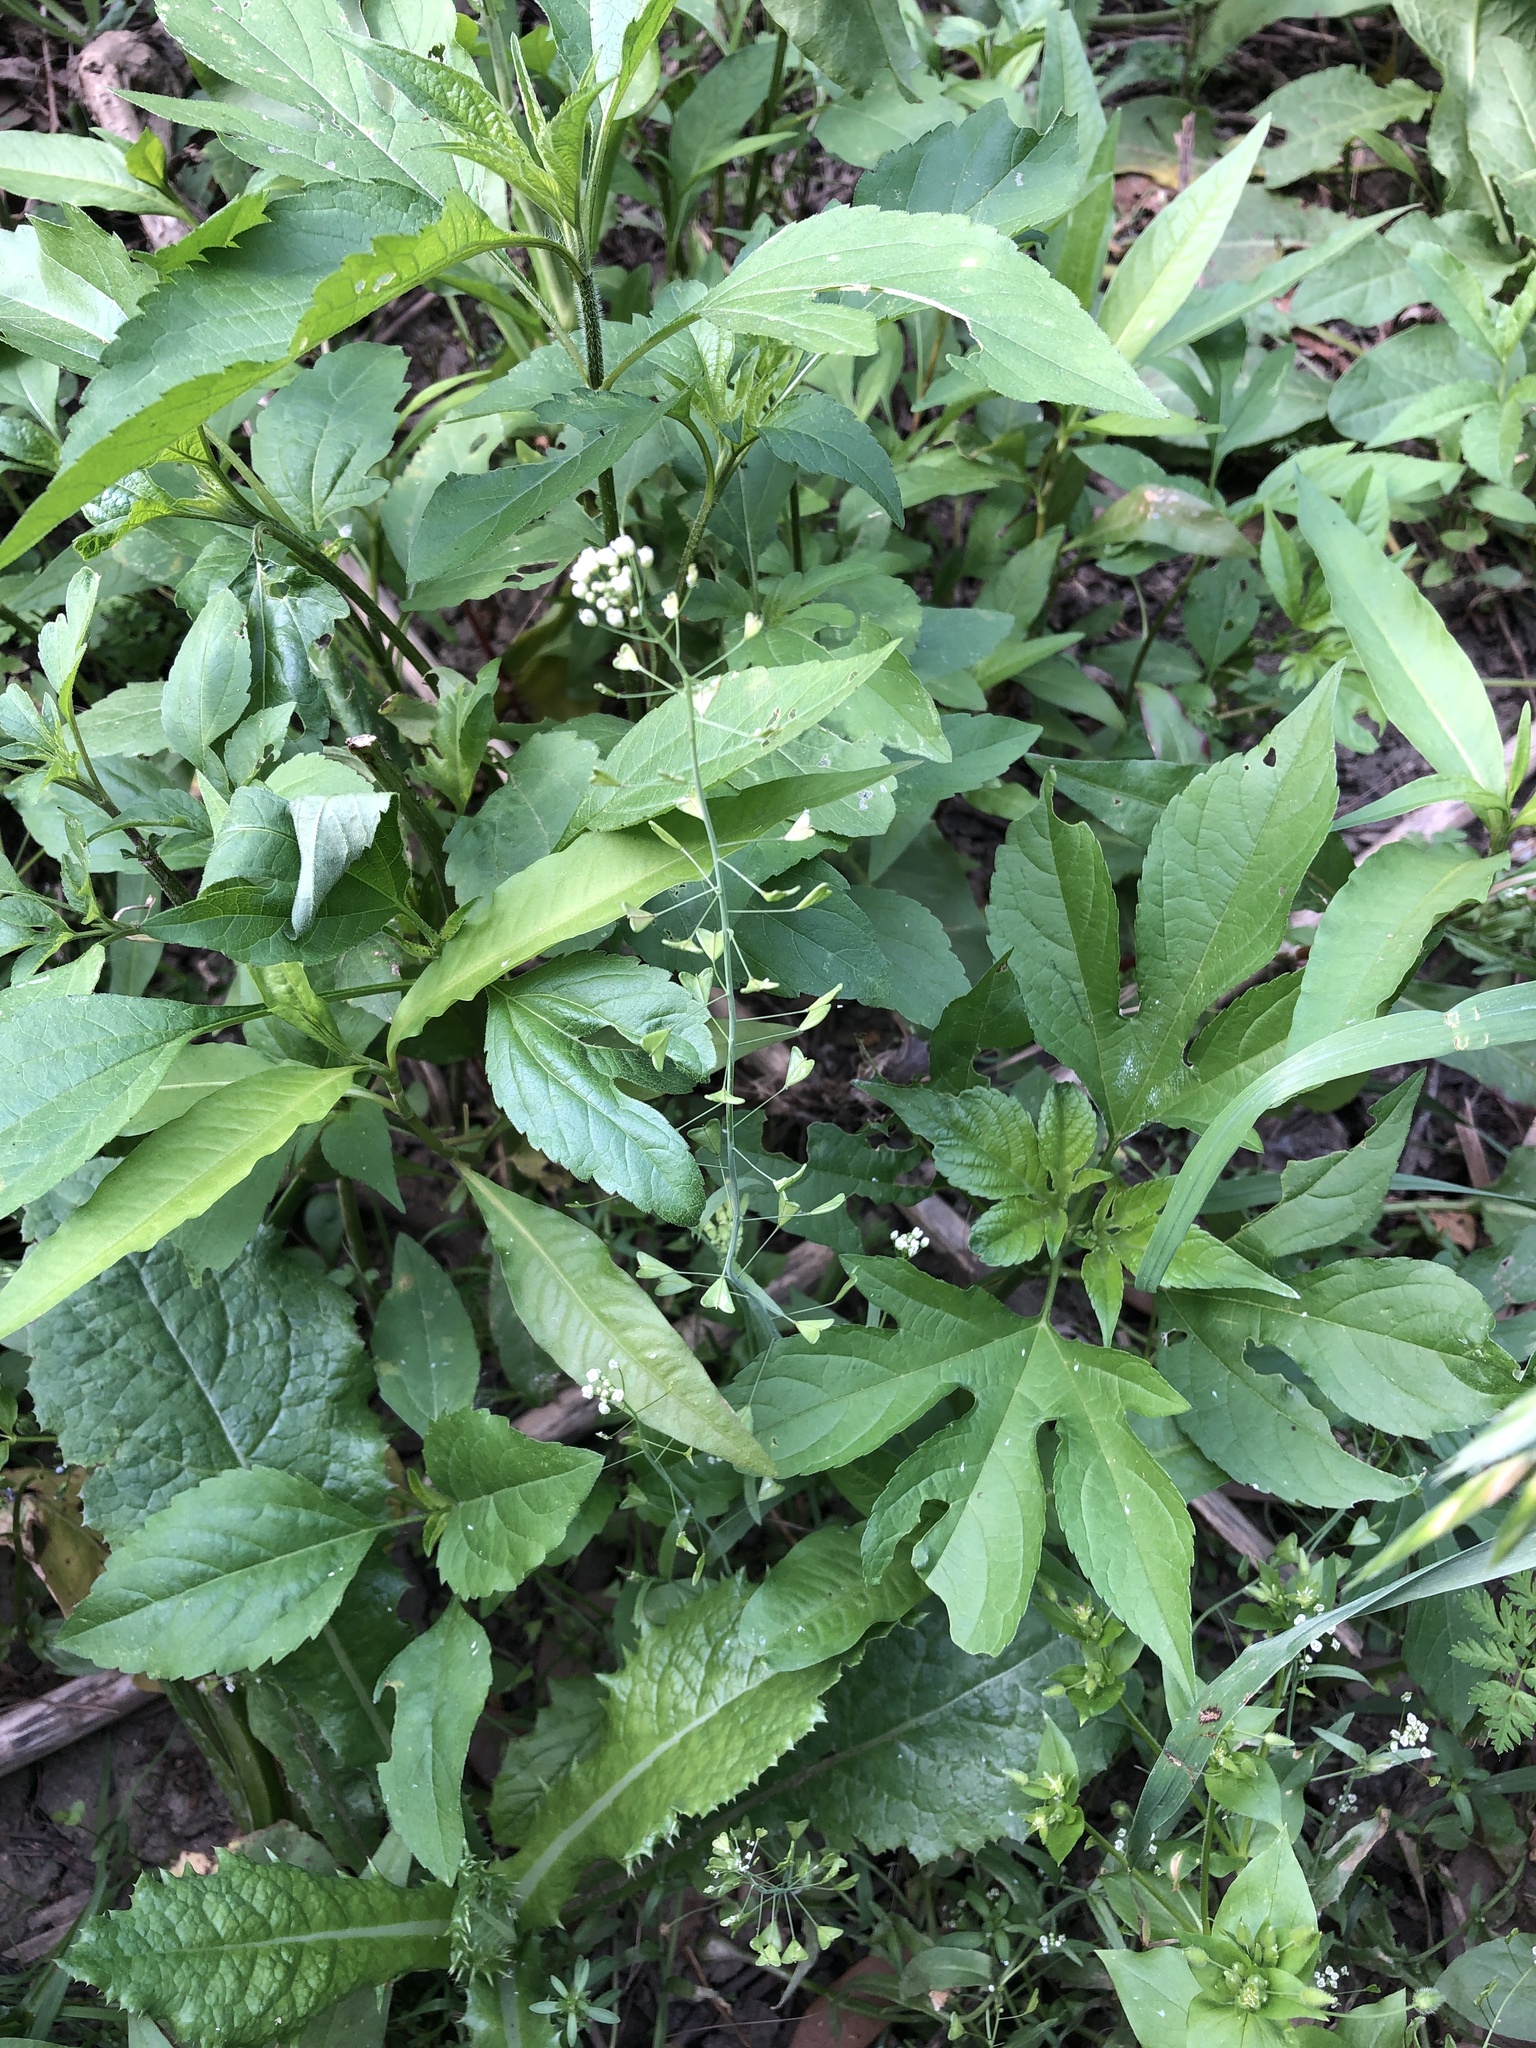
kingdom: Plantae
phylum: Tracheophyta
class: Magnoliopsida
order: Brassicales
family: Brassicaceae
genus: Capsella
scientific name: Capsella bursa-pastoris
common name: Shepherd's purse
